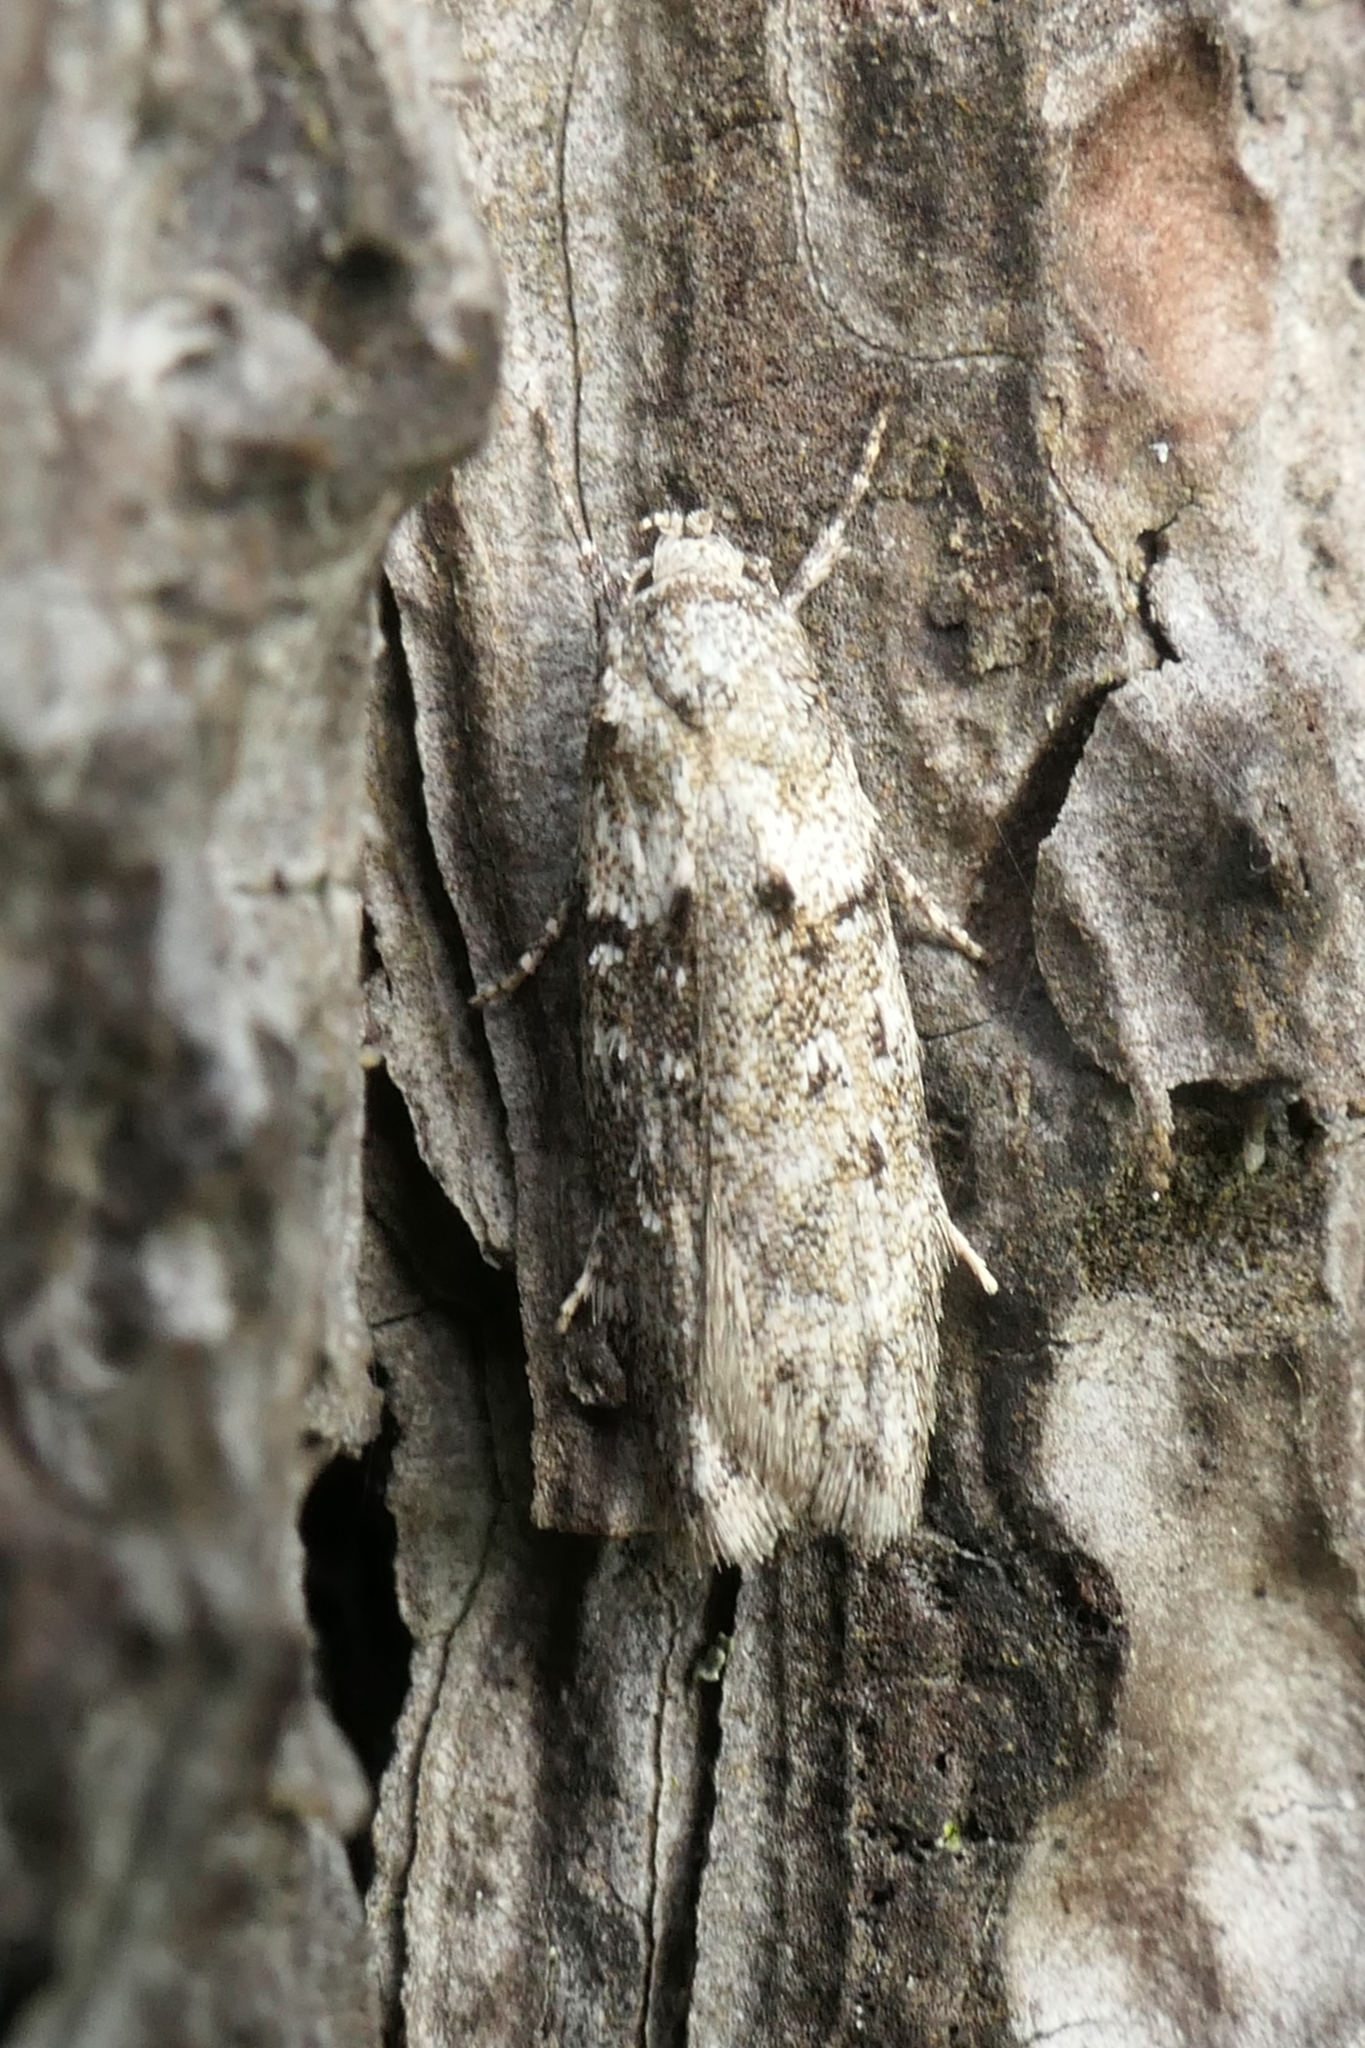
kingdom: Animalia
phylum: Arthropoda
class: Insecta
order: Lepidoptera
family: Oecophoridae
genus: Izatha
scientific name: Izatha convulsella
